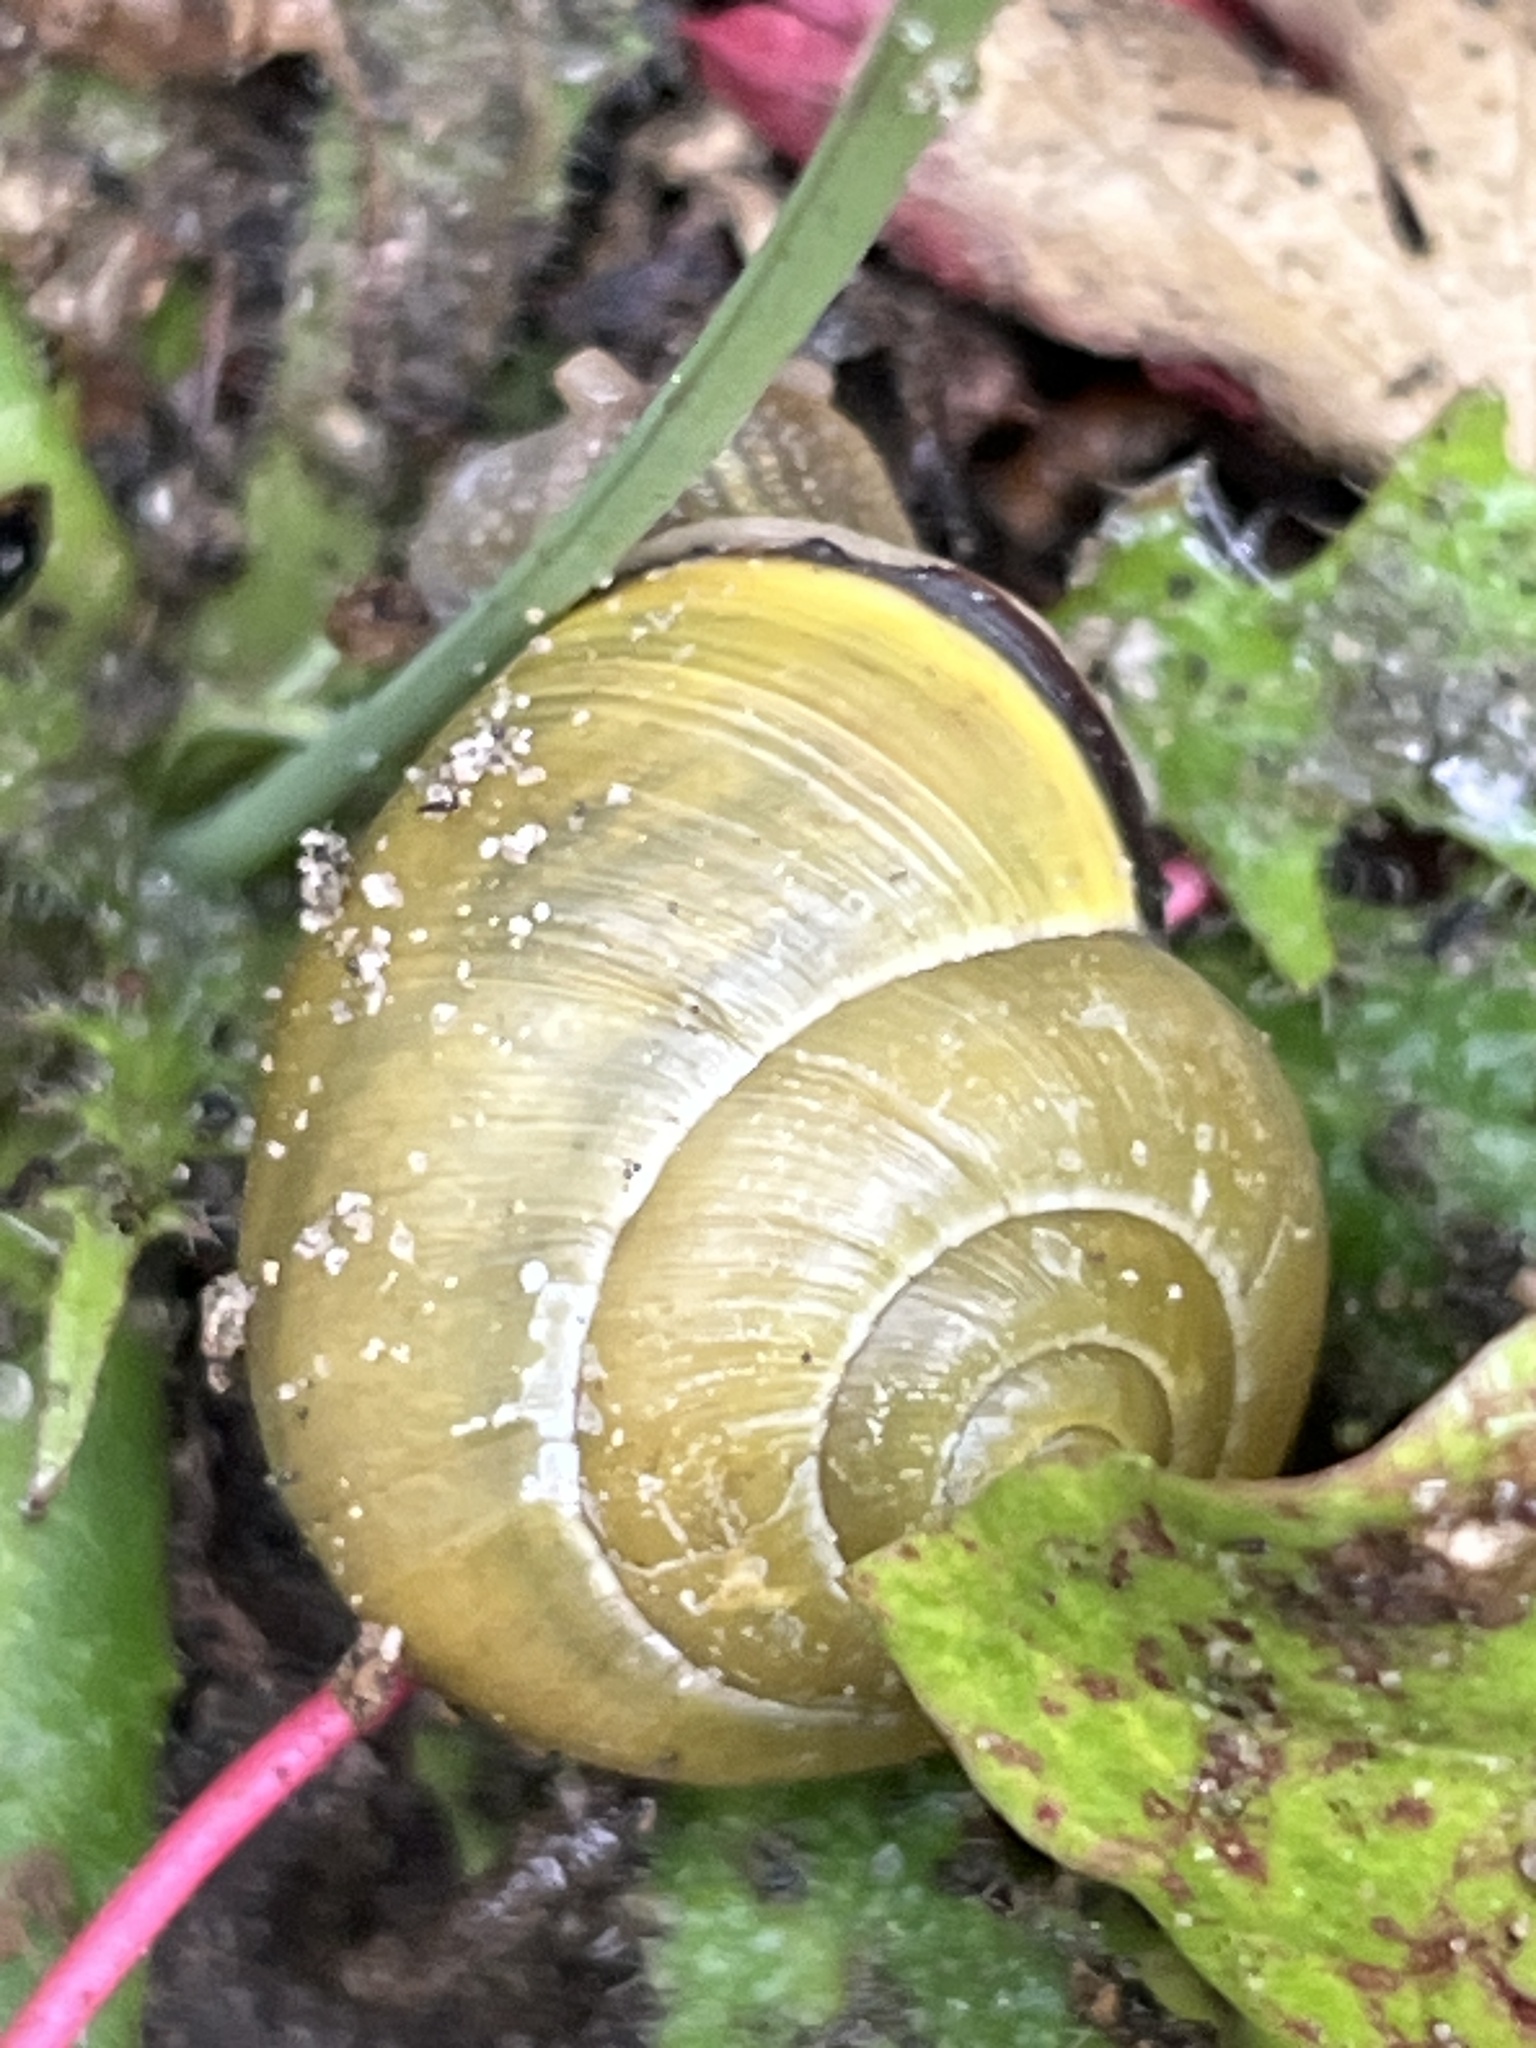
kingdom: Animalia
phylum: Mollusca
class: Gastropoda
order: Stylommatophora
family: Helicidae
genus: Cepaea
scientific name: Cepaea nemoralis
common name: Grovesnail
